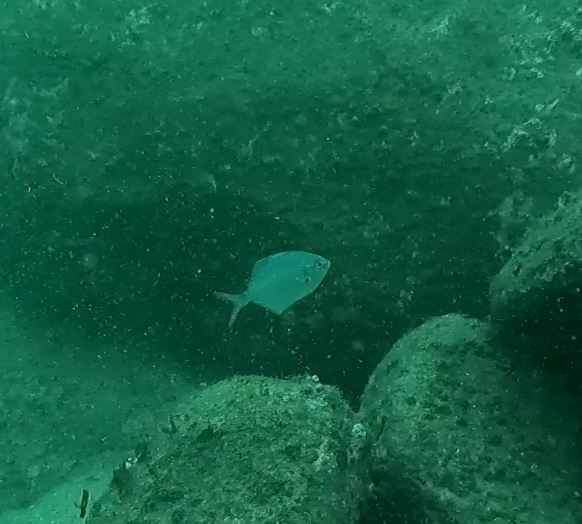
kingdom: Animalia
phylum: Chordata
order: Perciformes
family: Kyphosidae
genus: Scorpis
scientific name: Scorpis lineolata
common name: Sweep
